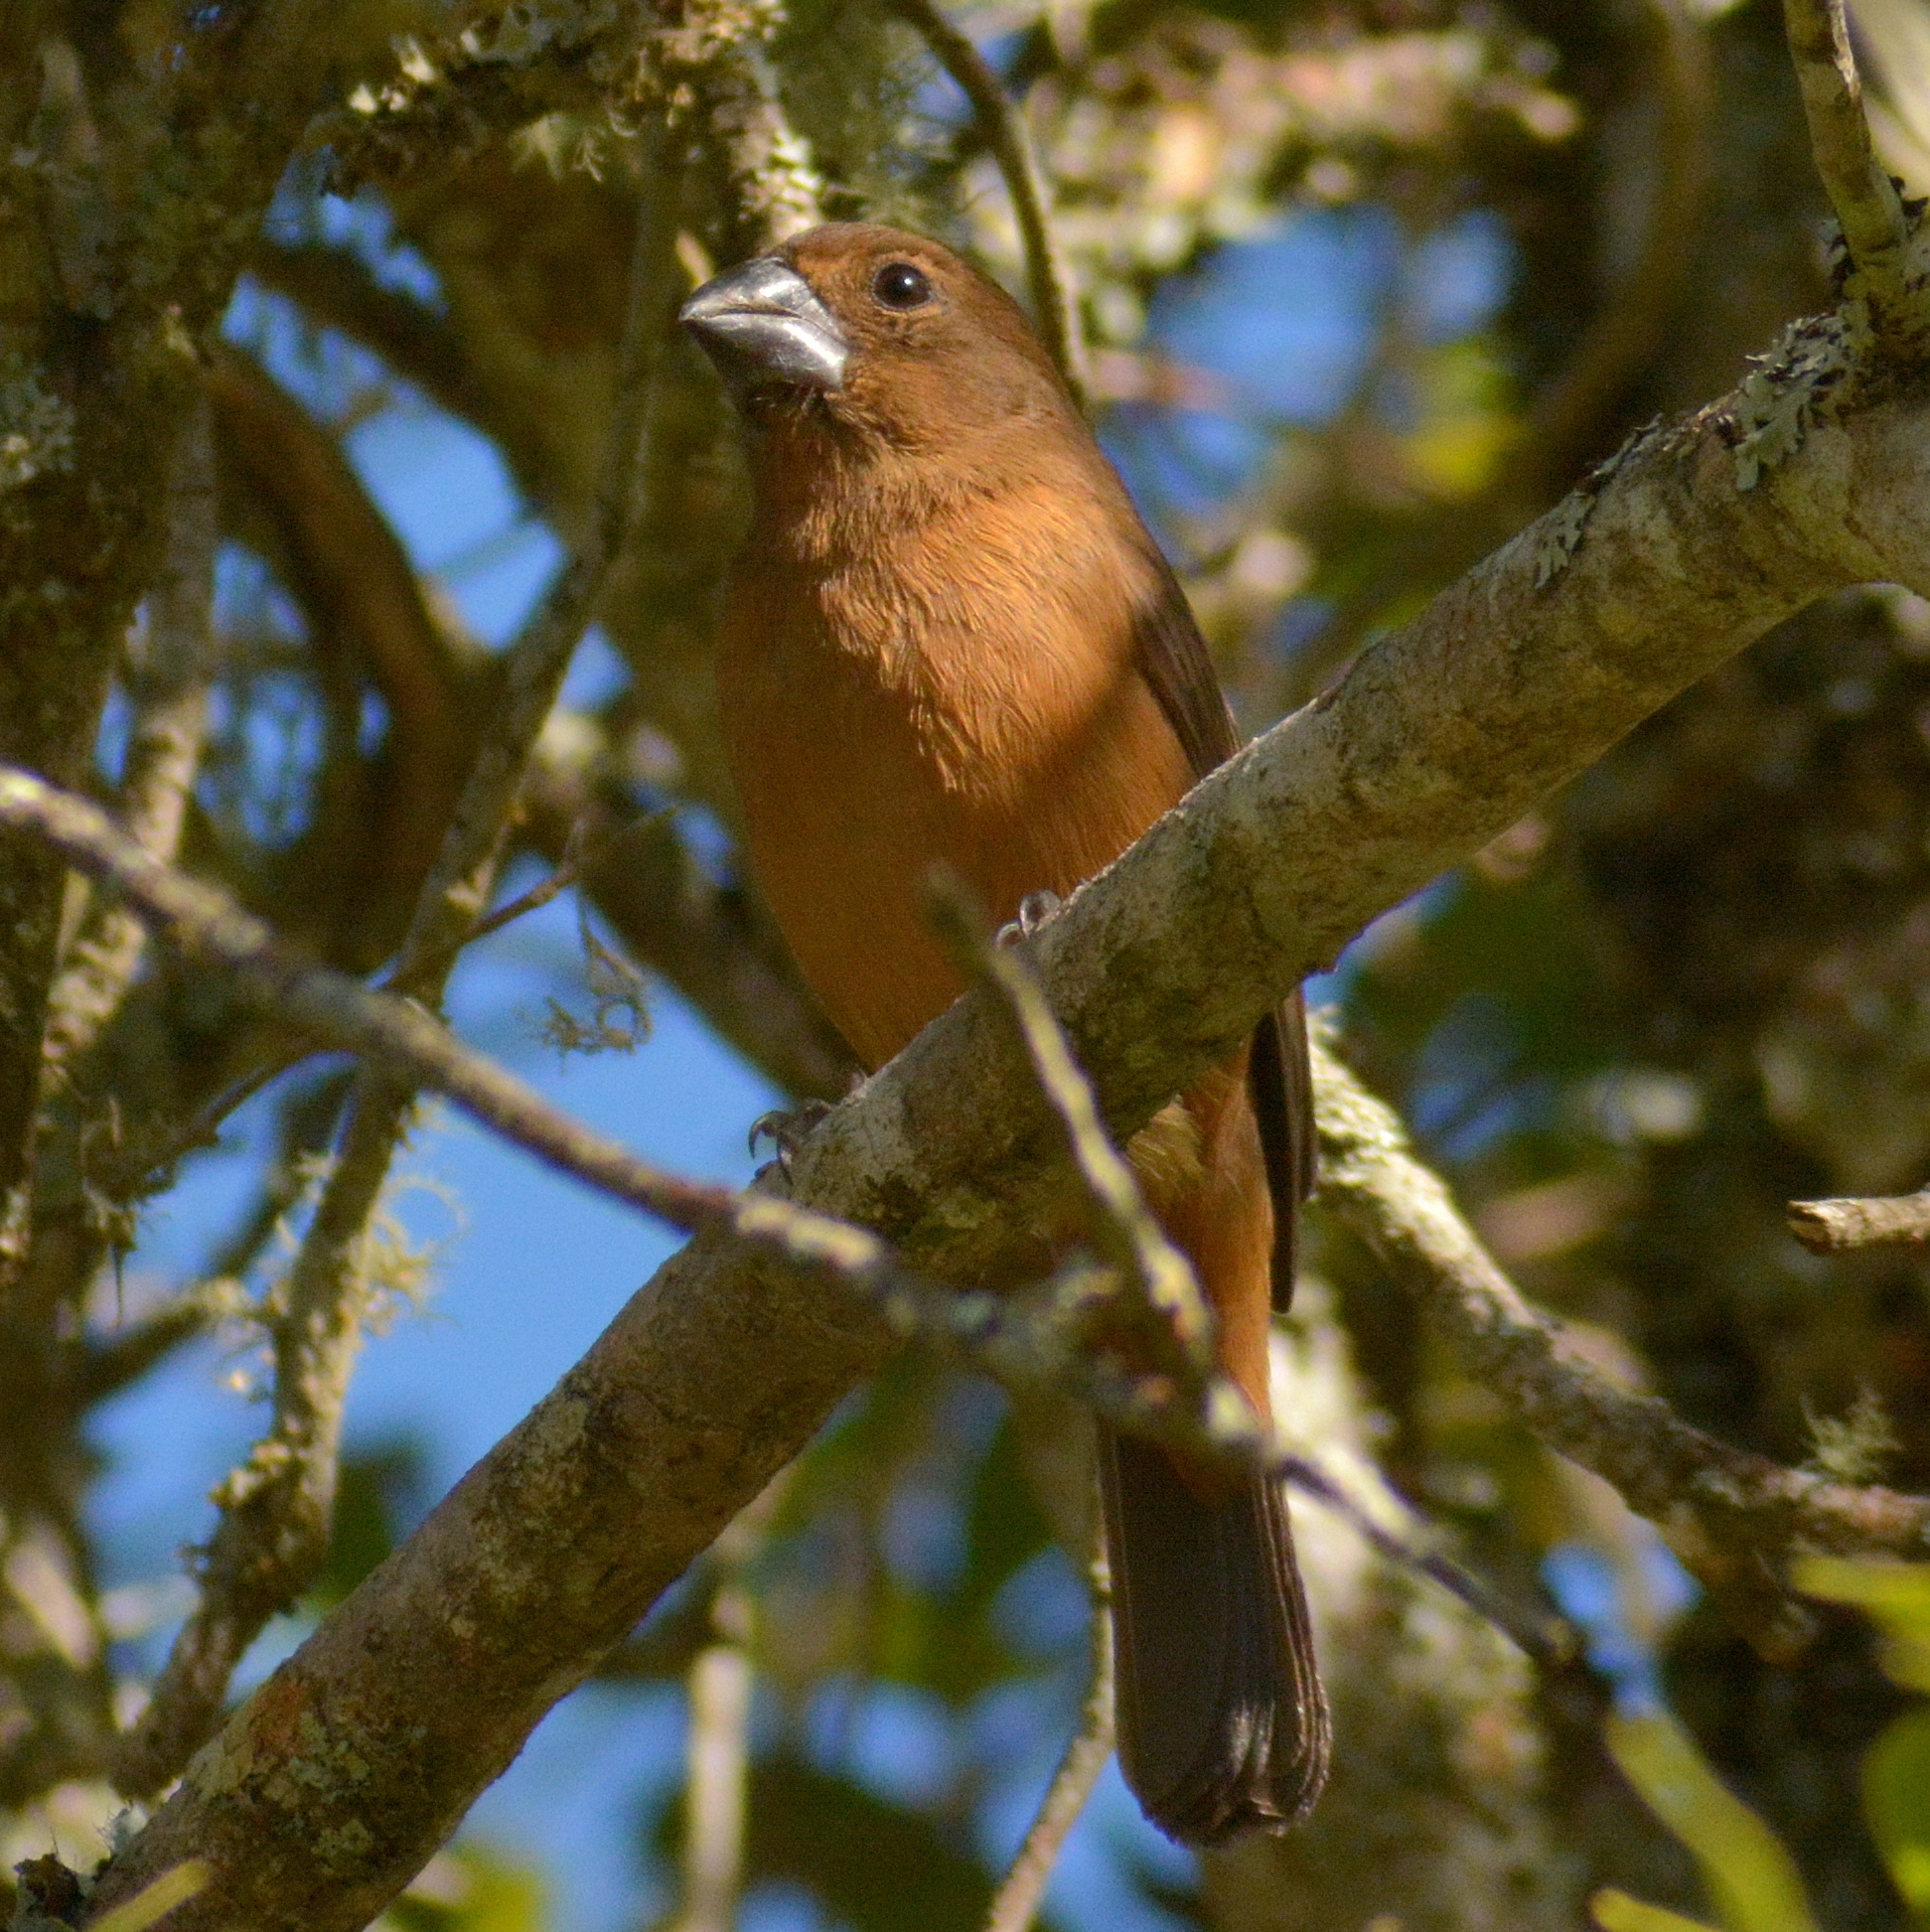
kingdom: Animalia
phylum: Chordata
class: Aves
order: Passeriformes
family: Cardinalidae
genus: Cyanoloxia
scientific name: Cyanoloxia brissonii
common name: Ultramarine grosbeak
